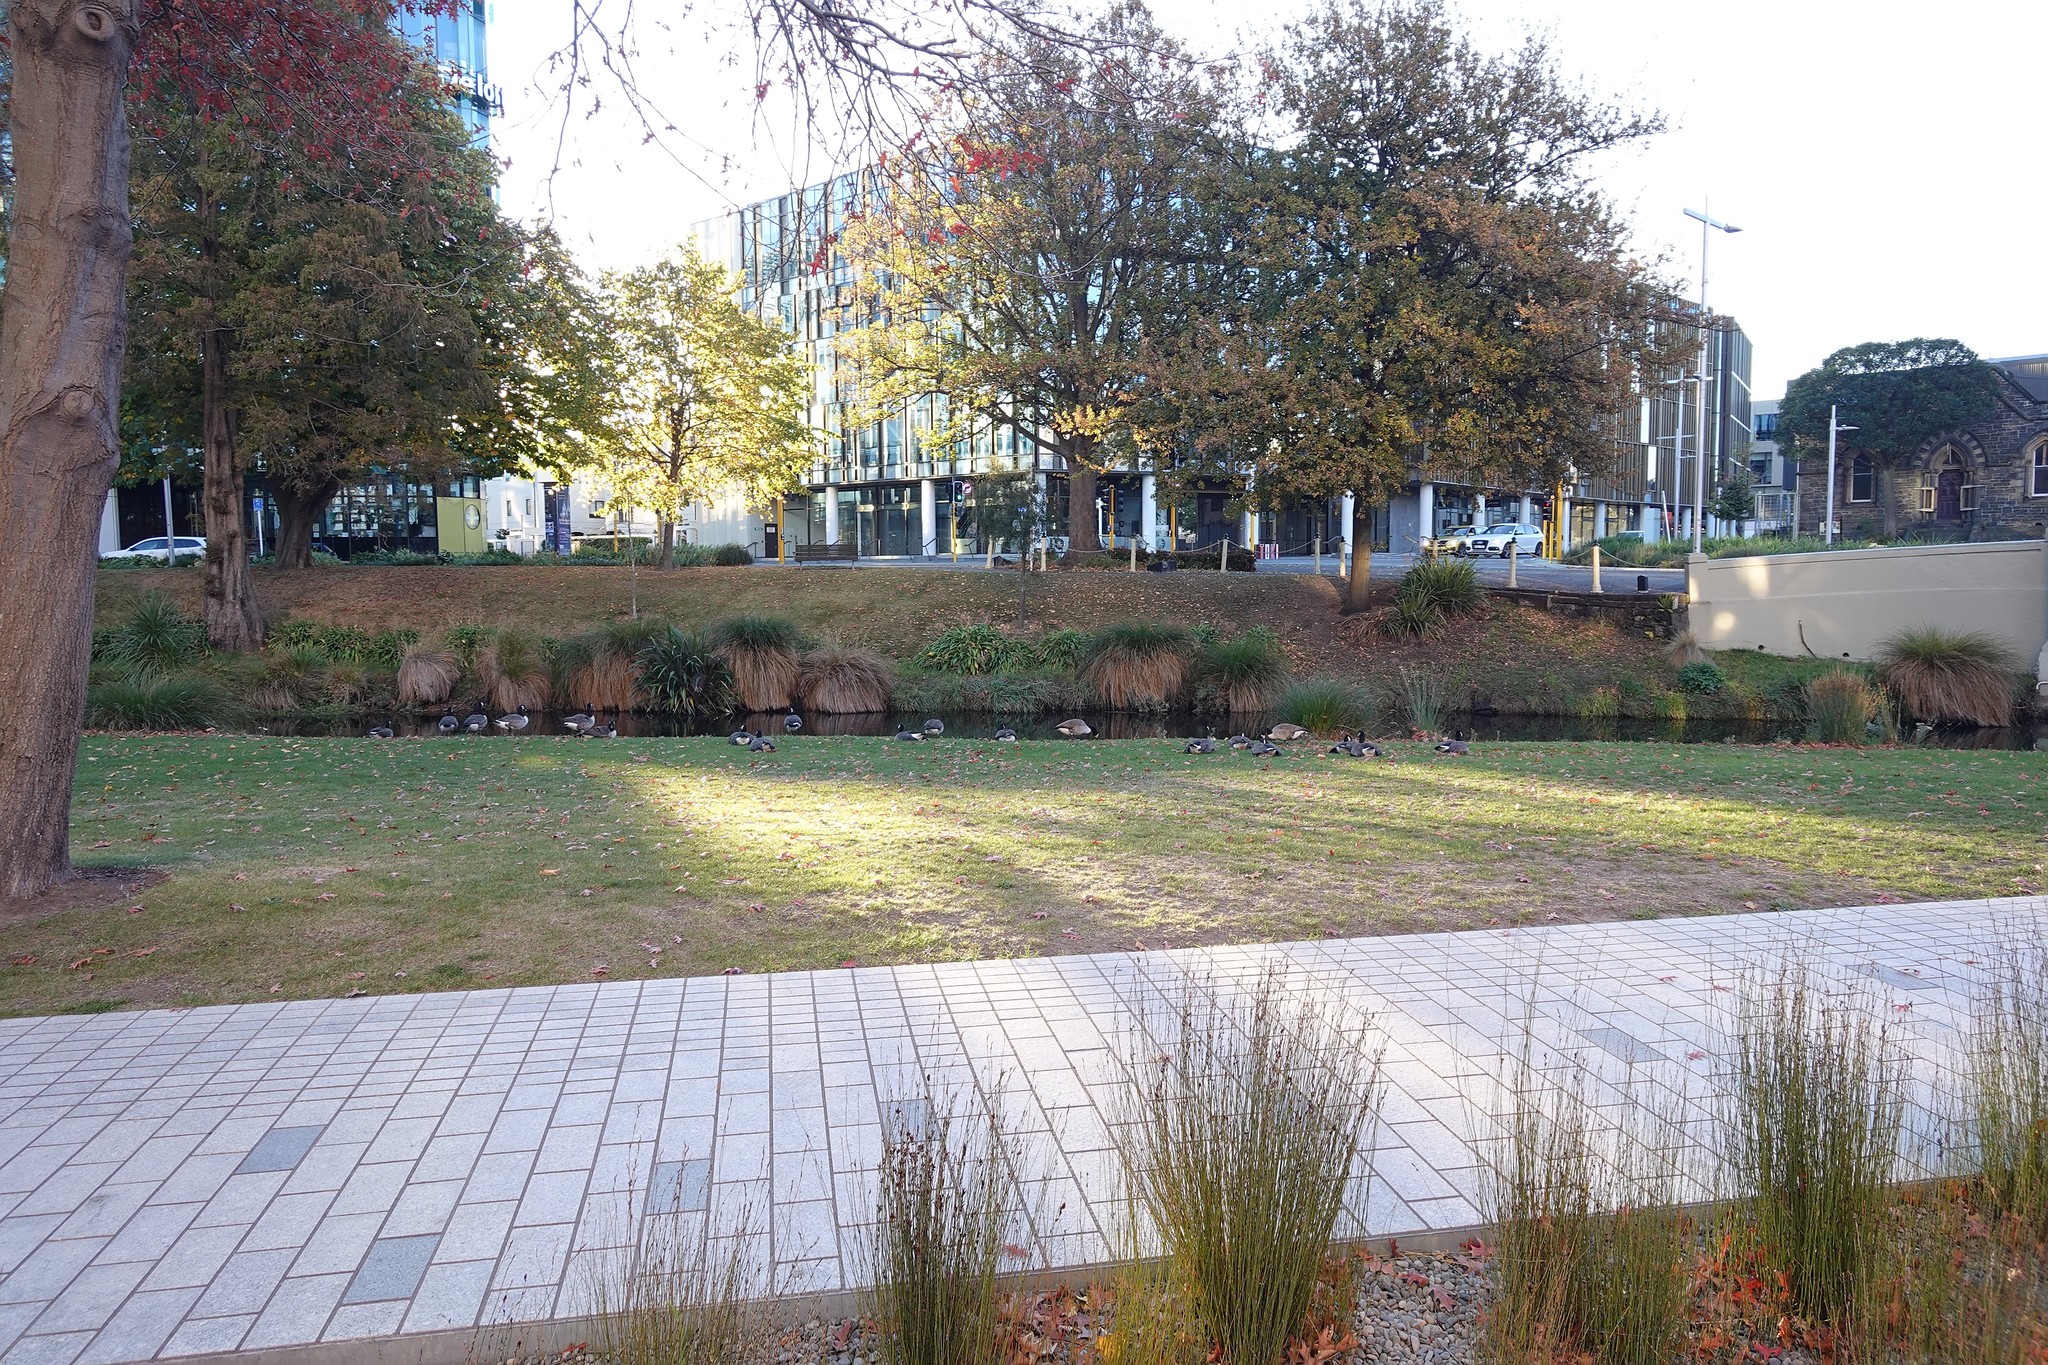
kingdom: Animalia
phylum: Chordata
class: Aves
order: Anseriformes
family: Anatidae
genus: Branta
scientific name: Branta canadensis
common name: Canada goose
